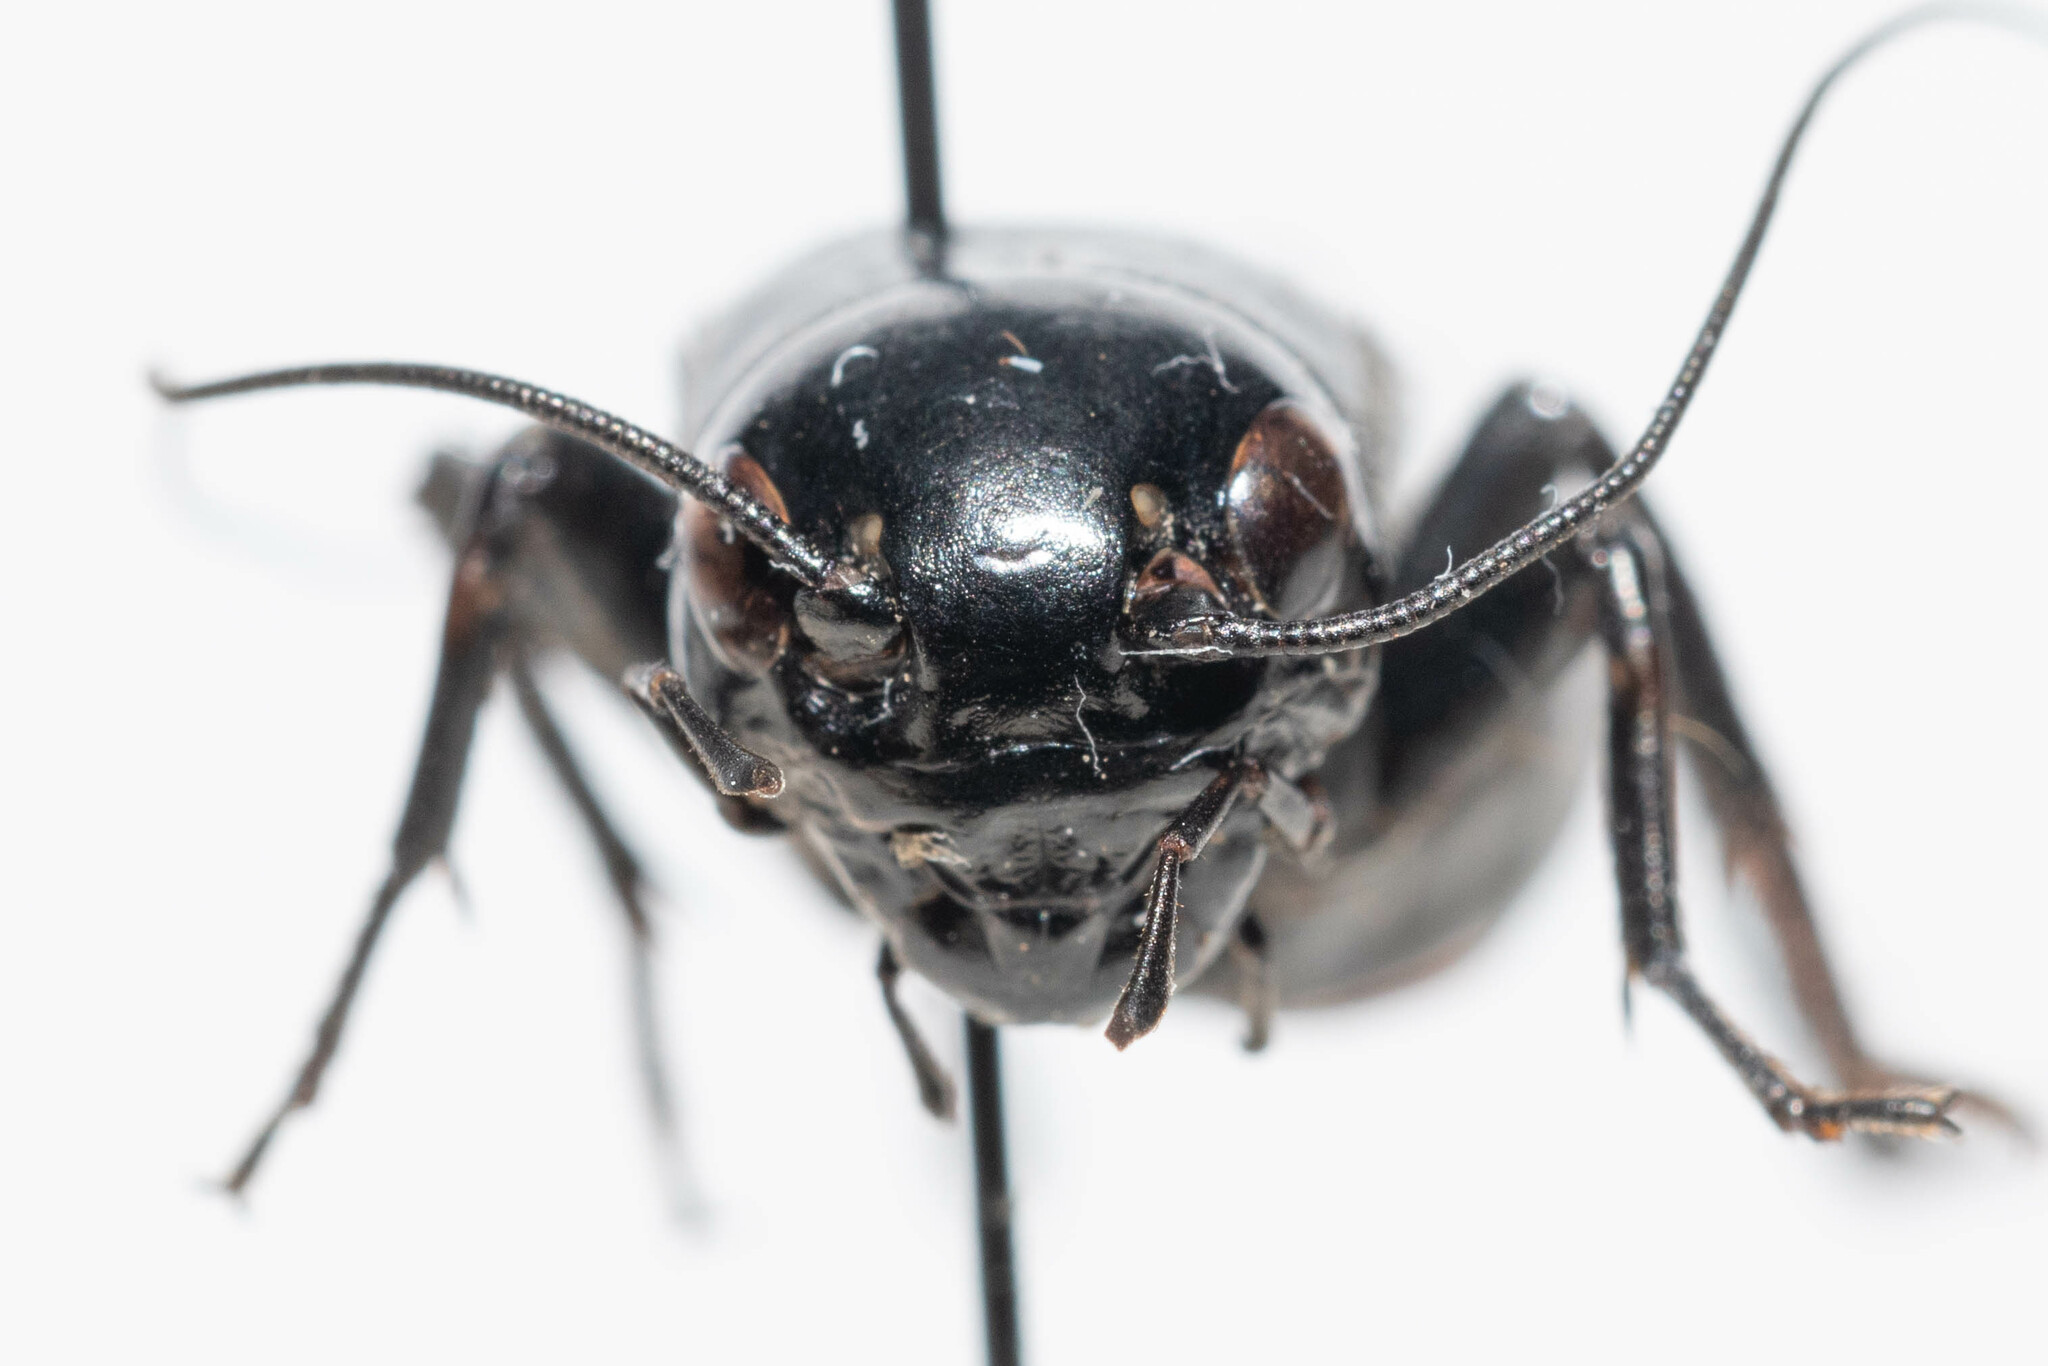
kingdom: Animalia
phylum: Arthropoda
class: Insecta
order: Orthoptera
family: Gryllidae
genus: Gryllus
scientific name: Gryllus veletis
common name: Spring field cricket
